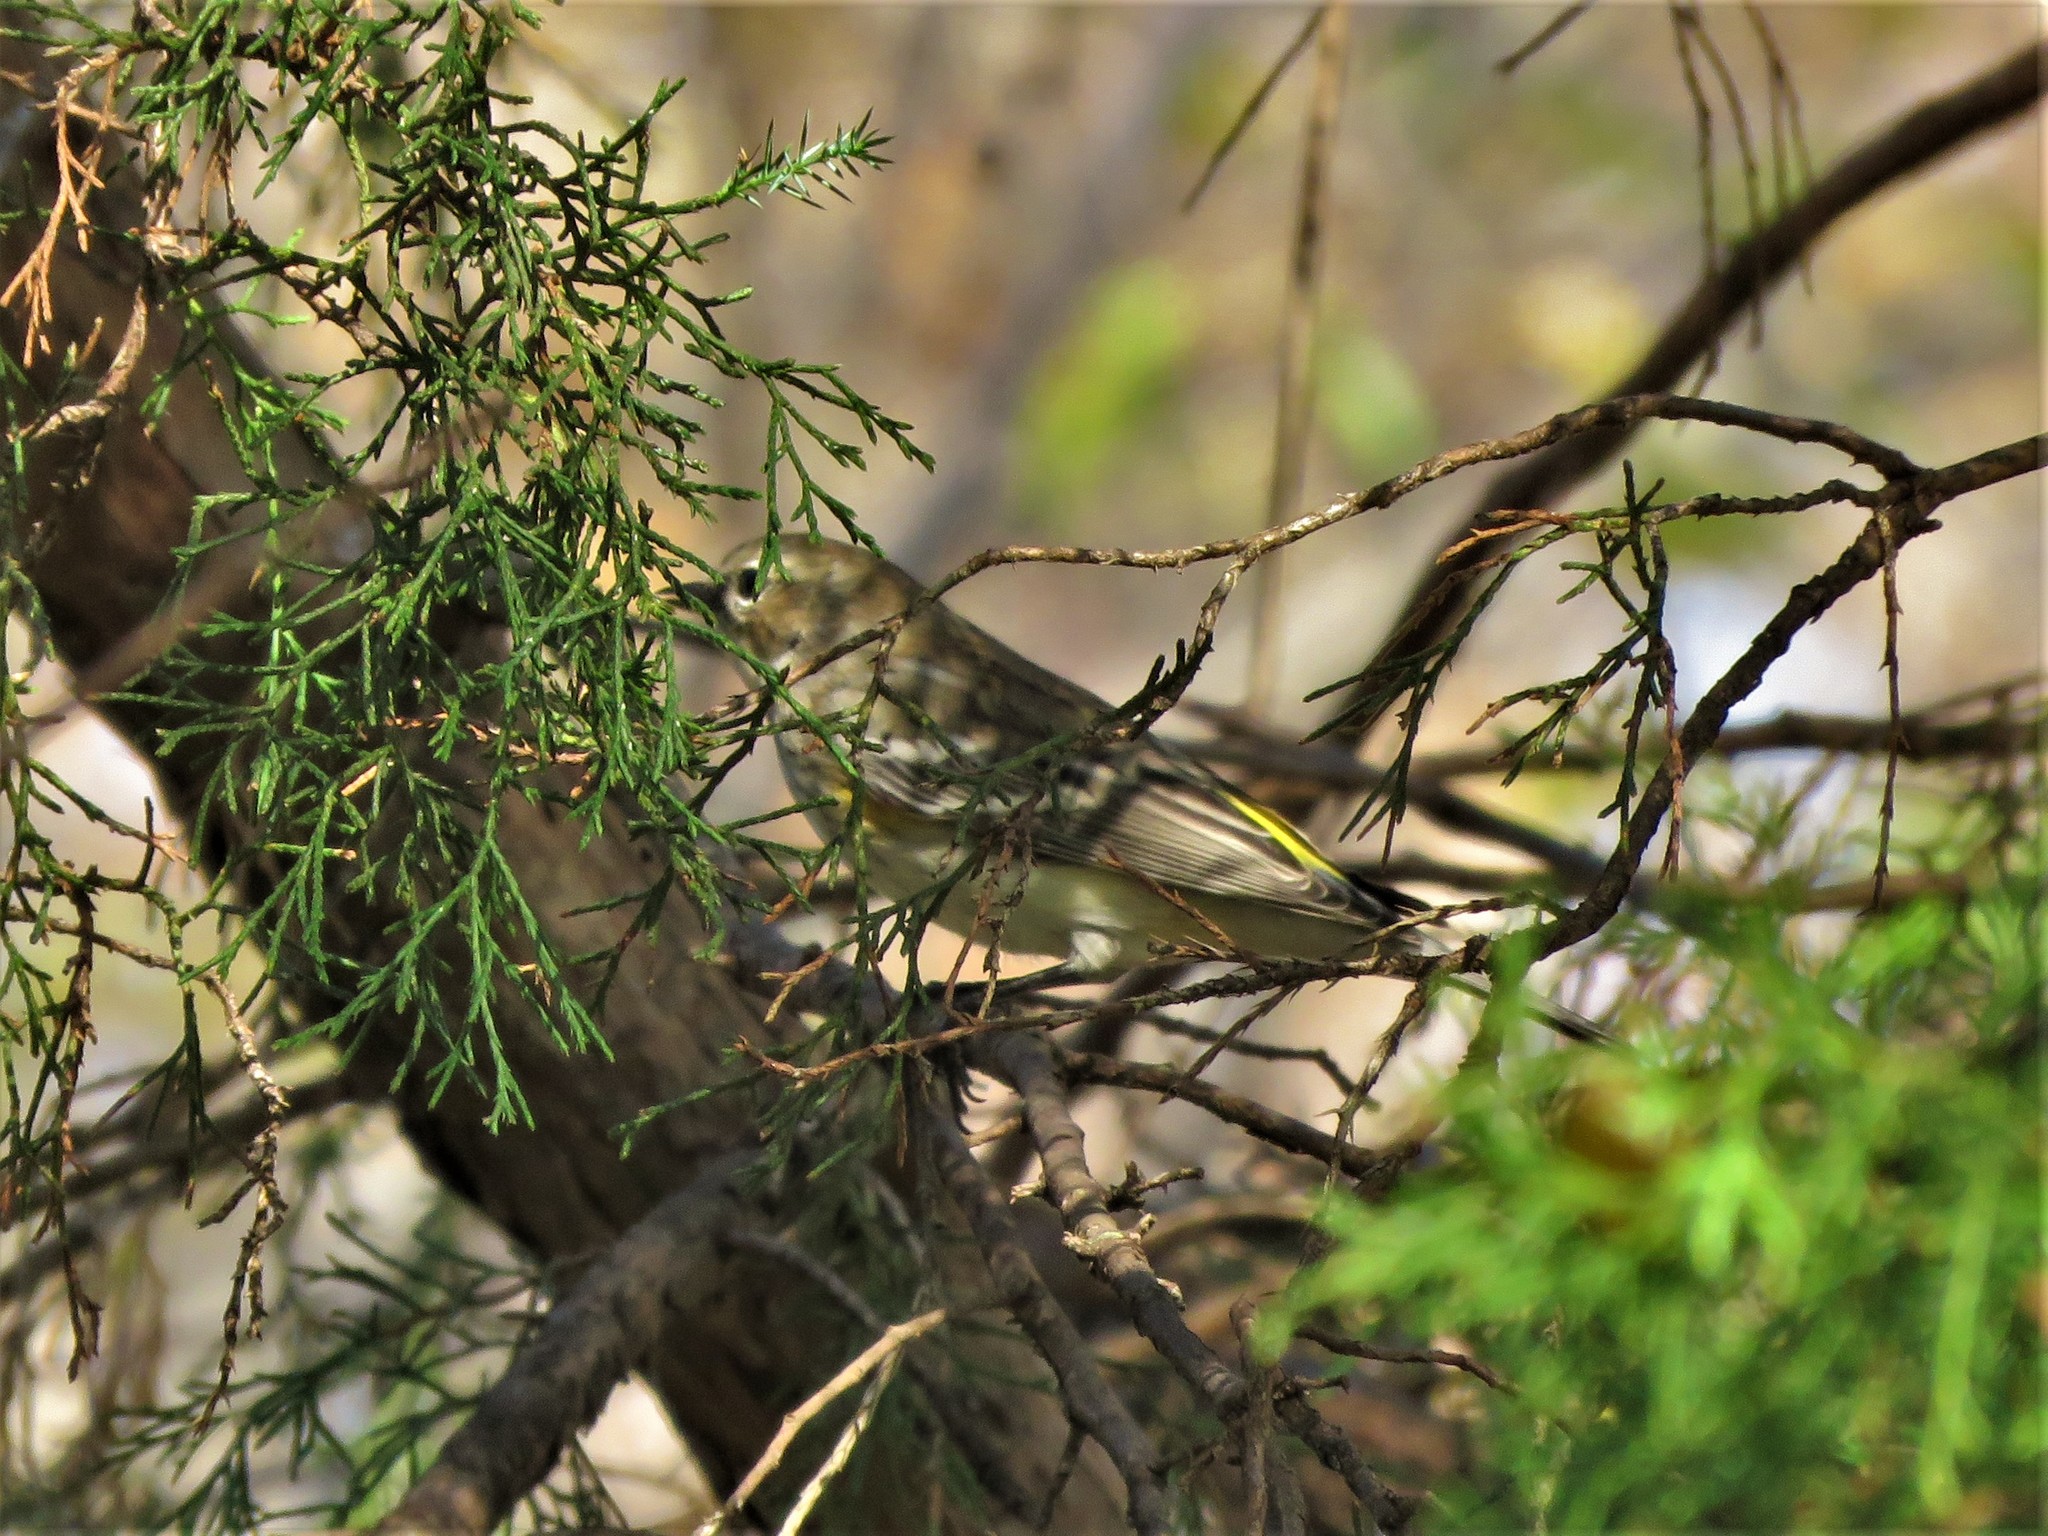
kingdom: Animalia
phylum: Chordata
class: Aves
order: Passeriformes
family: Parulidae
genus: Setophaga
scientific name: Setophaga coronata
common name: Myrtle warbler
